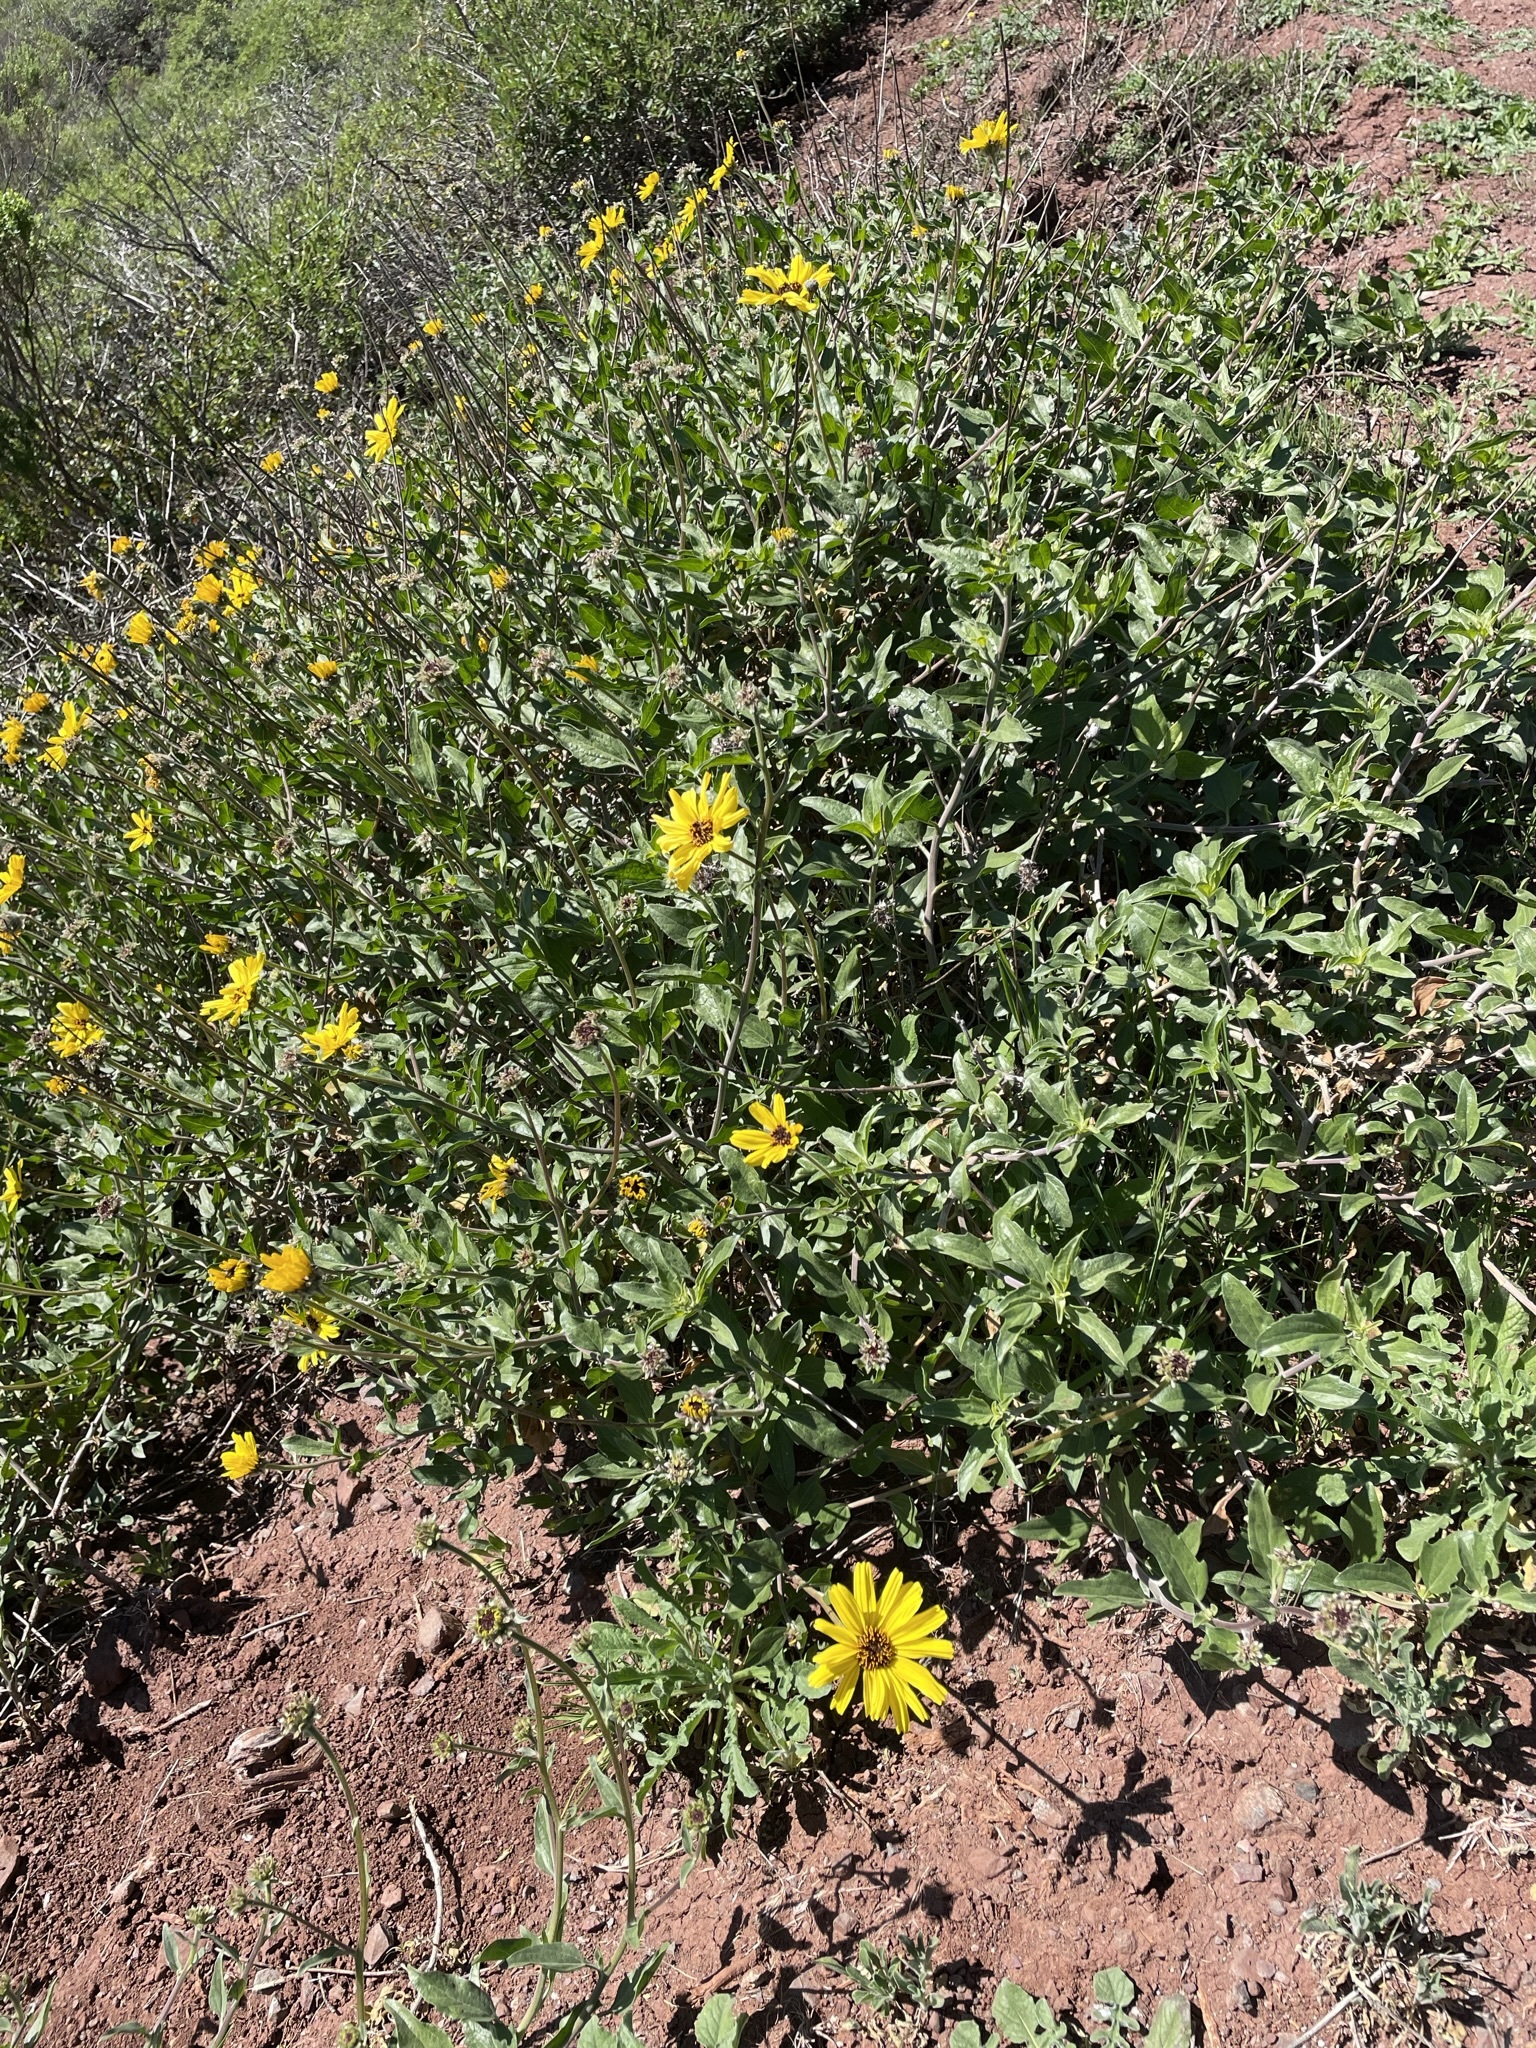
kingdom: Plantae
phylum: Tracheophyta
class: Magnoliopsida
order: Asterales
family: Asteraceae
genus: Encelia
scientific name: Encelia californica
